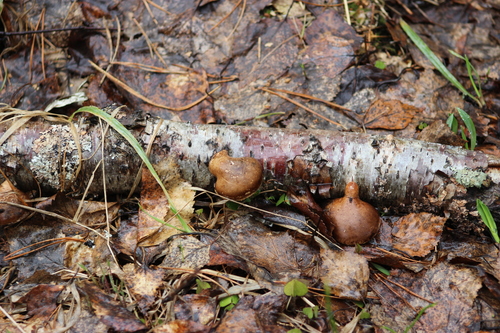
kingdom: Fungi
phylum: Basidiomycota
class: Agaricomycetes
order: Polyporales
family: Fomitopsidaceae
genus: Fomitopsis
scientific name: Fomitopsis betulina
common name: Birch polypore
